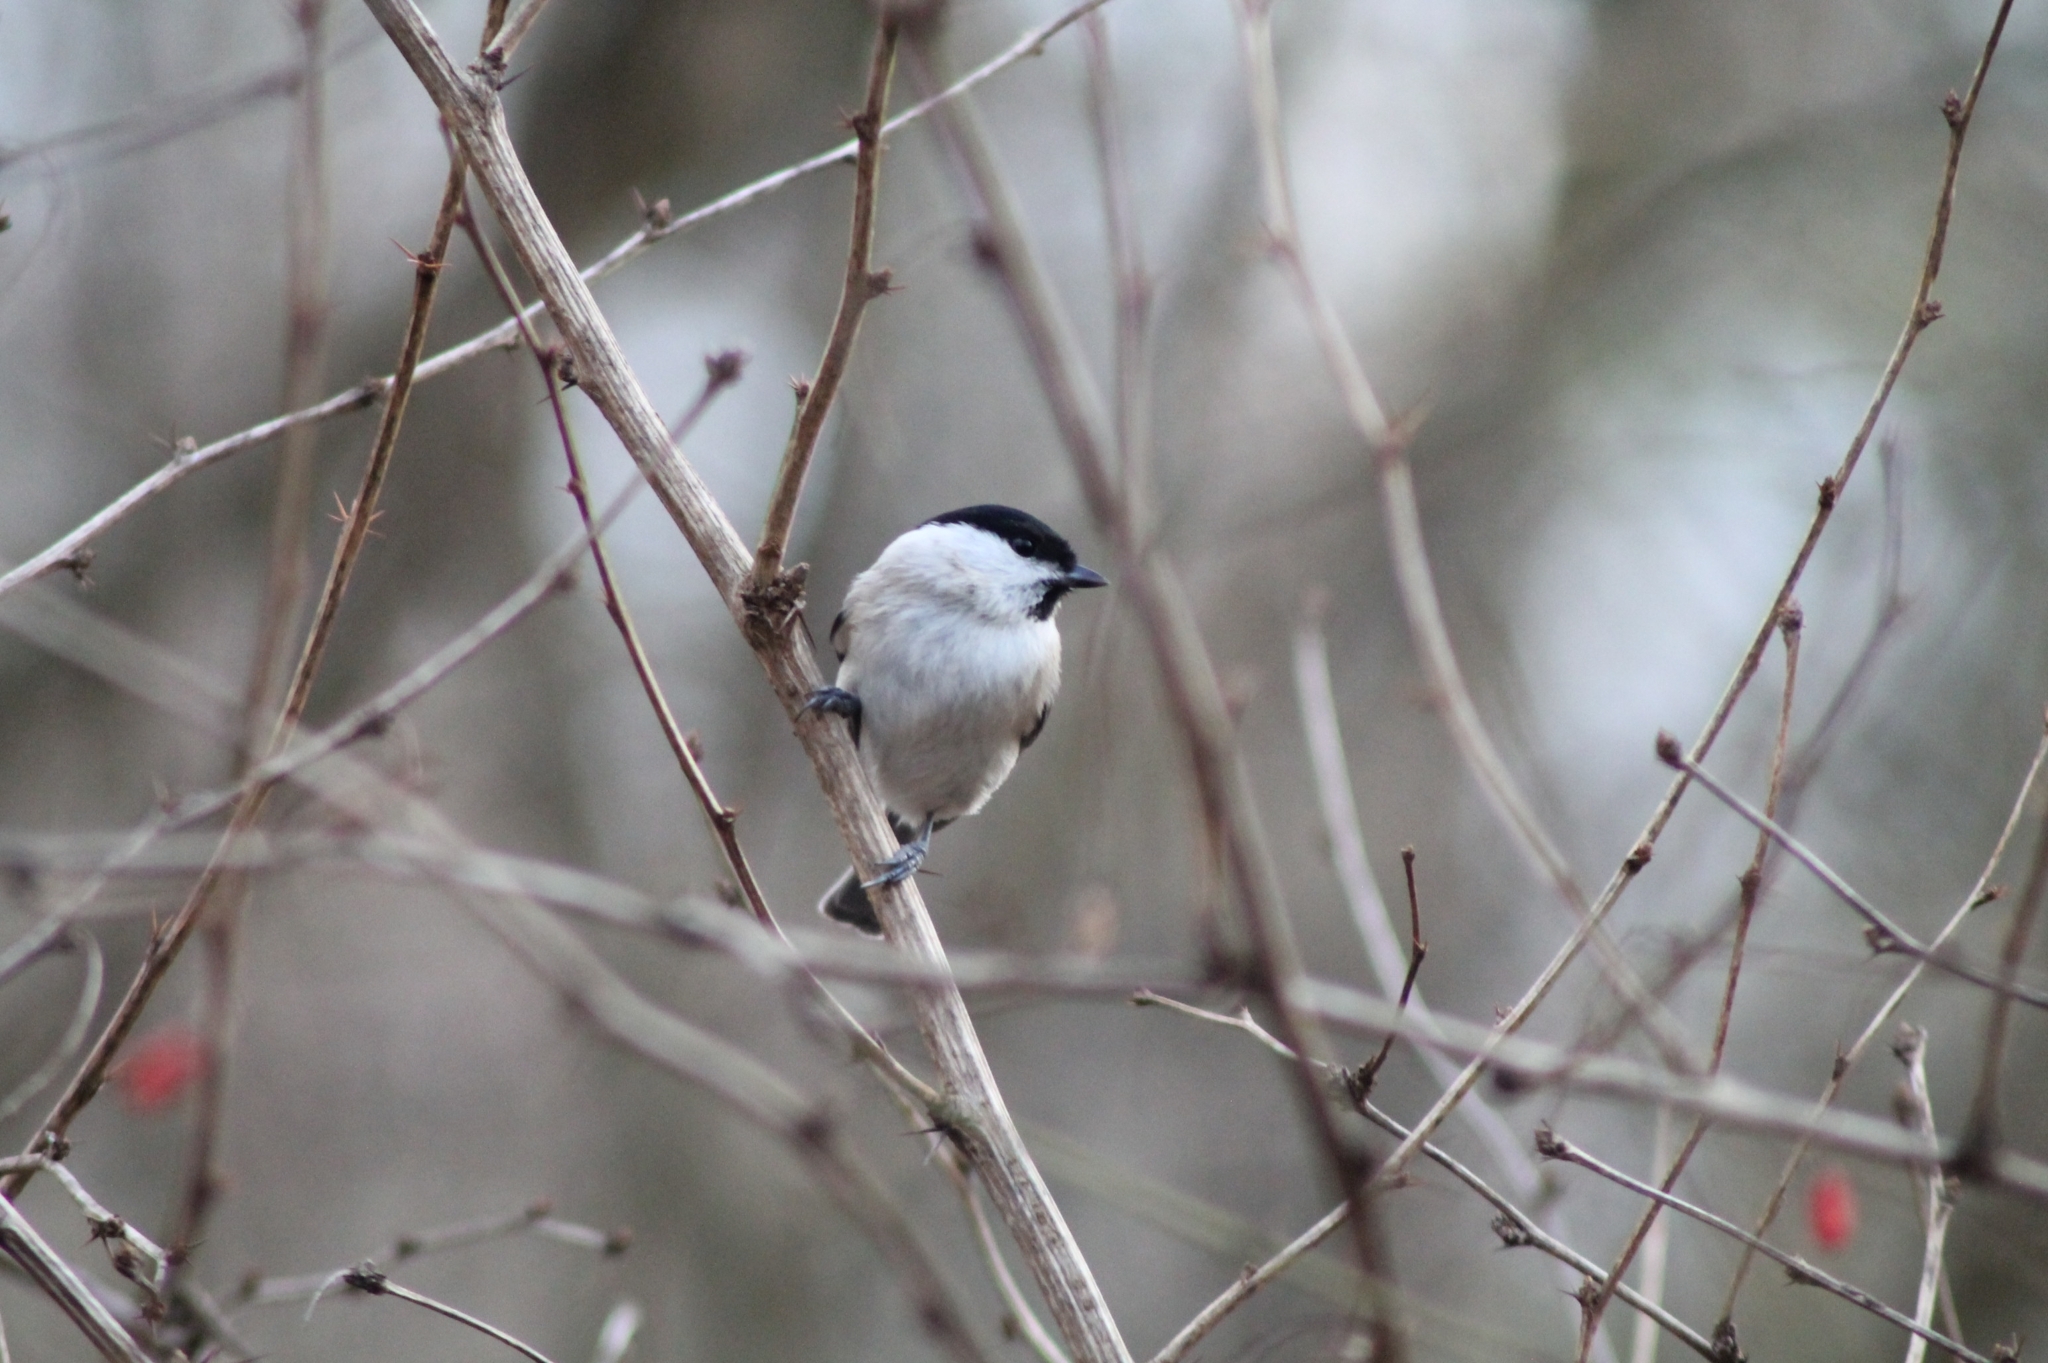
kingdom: Animalia
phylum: Chordata
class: Aves
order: Passeriformes
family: Paridae
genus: Poecile
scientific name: Poecile palustris
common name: Marsh tit
